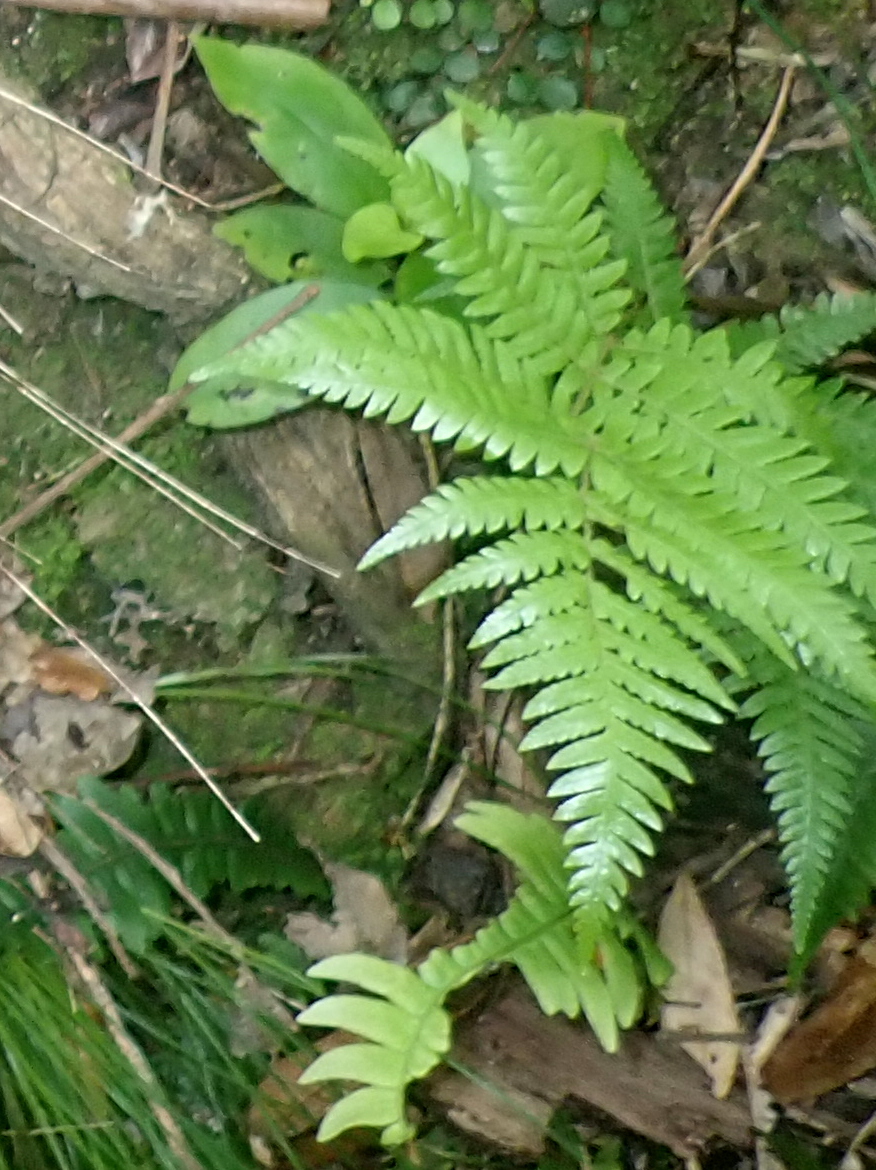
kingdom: Plantae
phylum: Tracheophyta
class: Polypodiopsida
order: Cyatheales
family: Cyatheaceae
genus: Alsophila
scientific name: Alsophila dealbata
